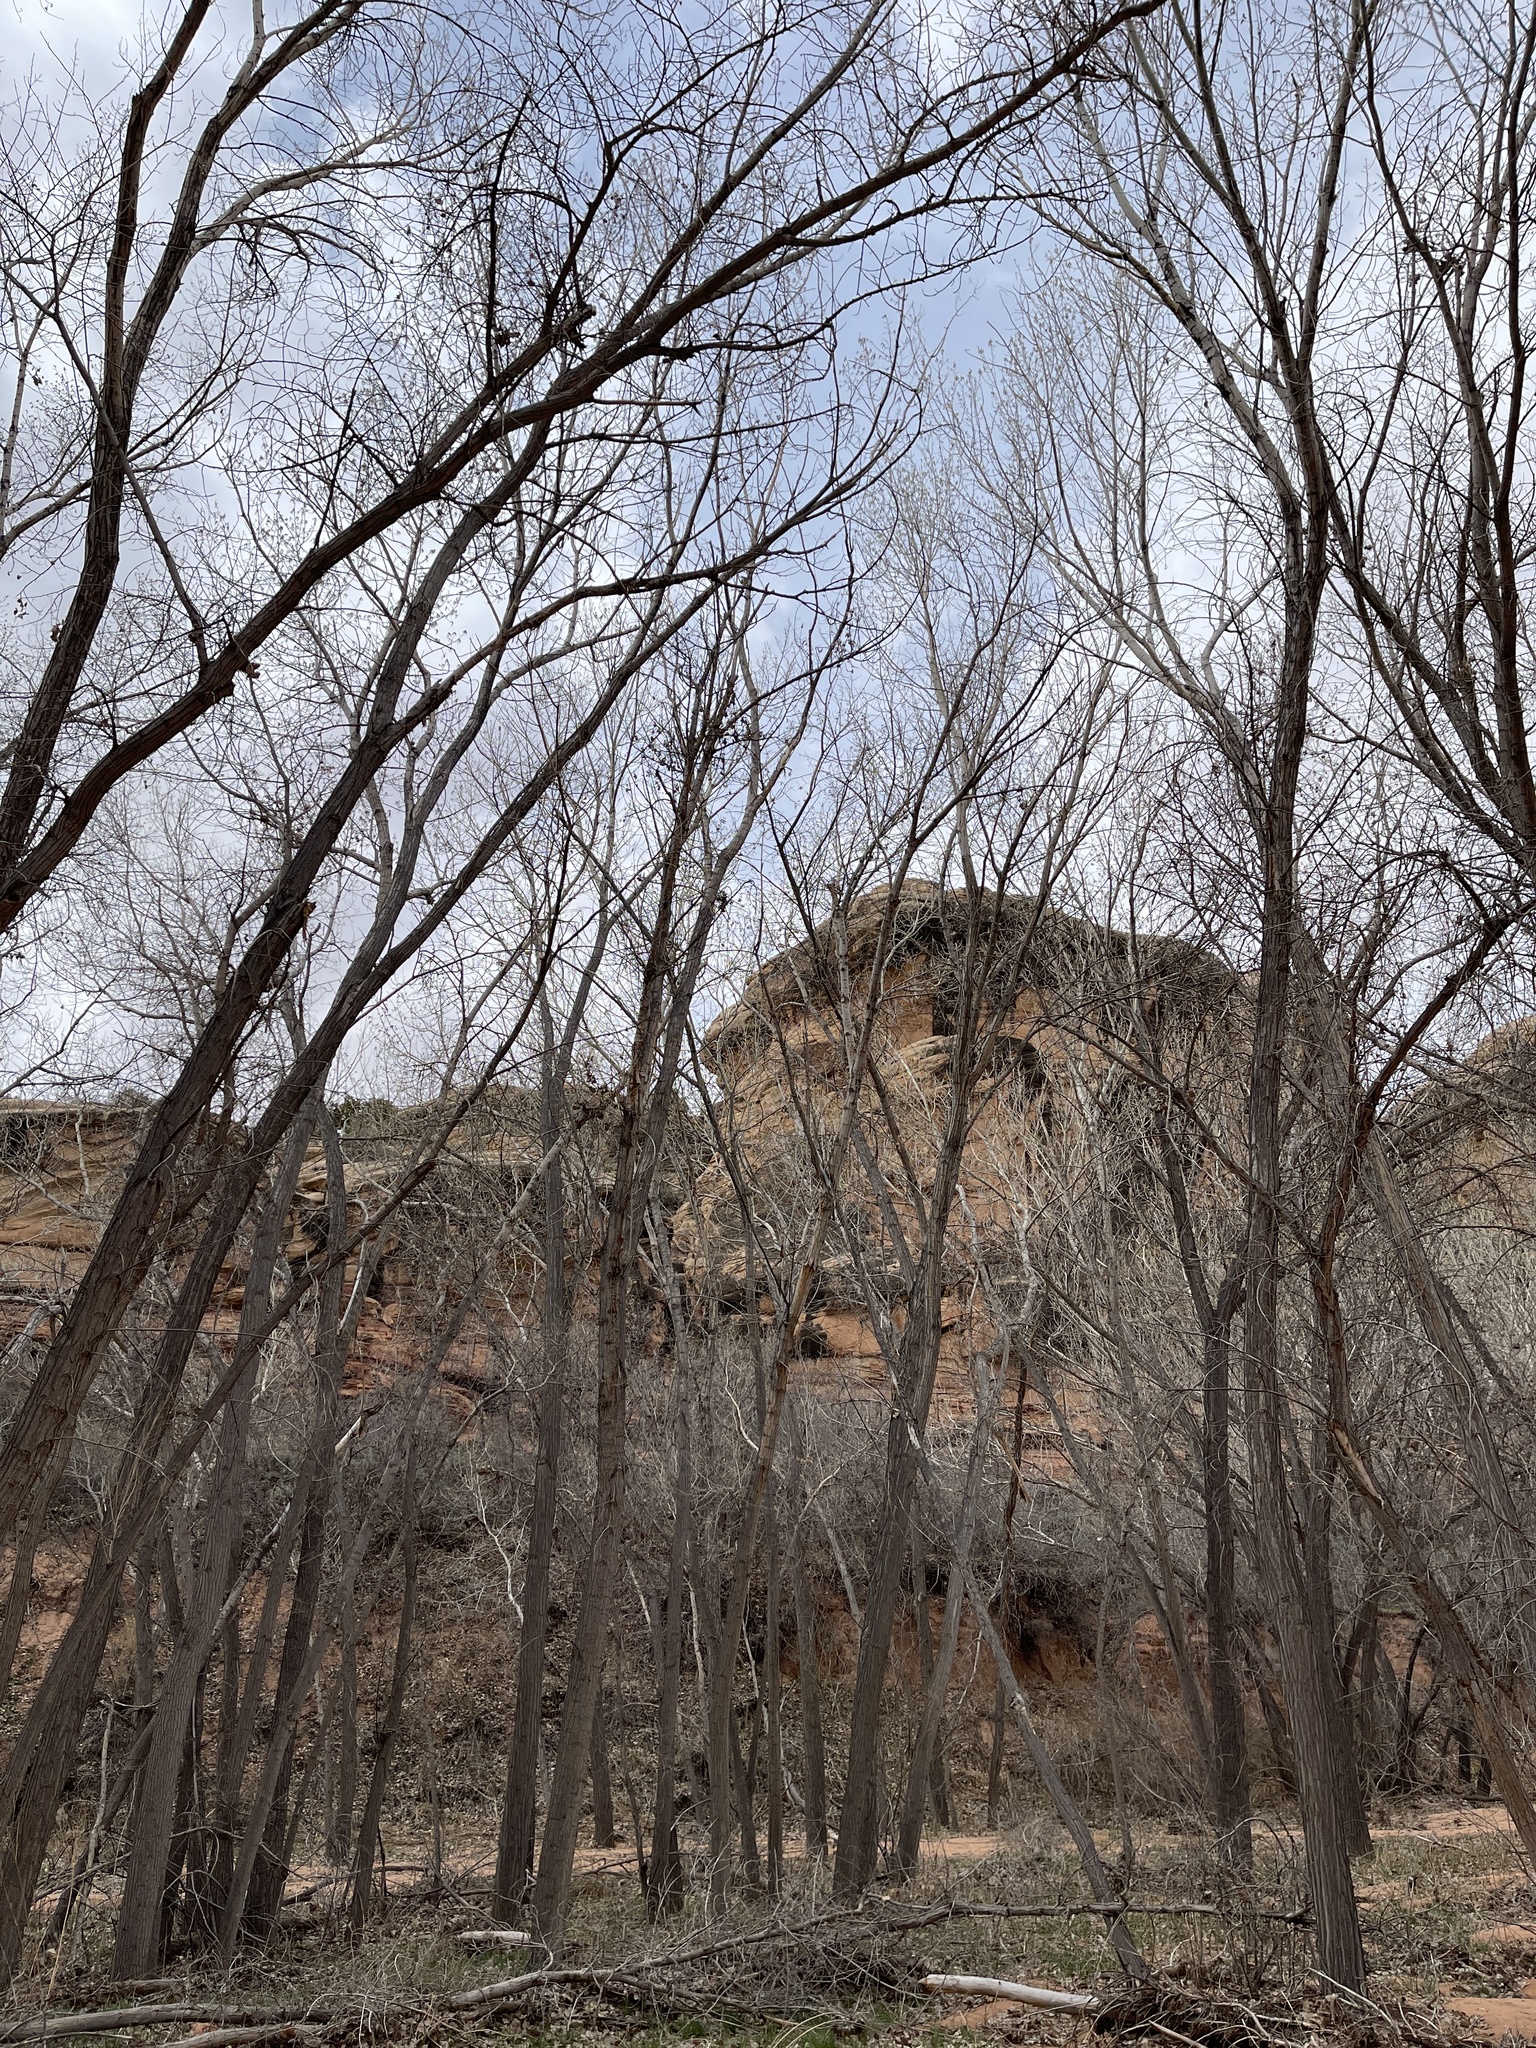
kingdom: Plantae
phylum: Tracheophyta
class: Magnoliopsida
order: Malpighiales
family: Salicaceae
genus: Populus
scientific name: Populus fremontii
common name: Fremont's cottonwood
